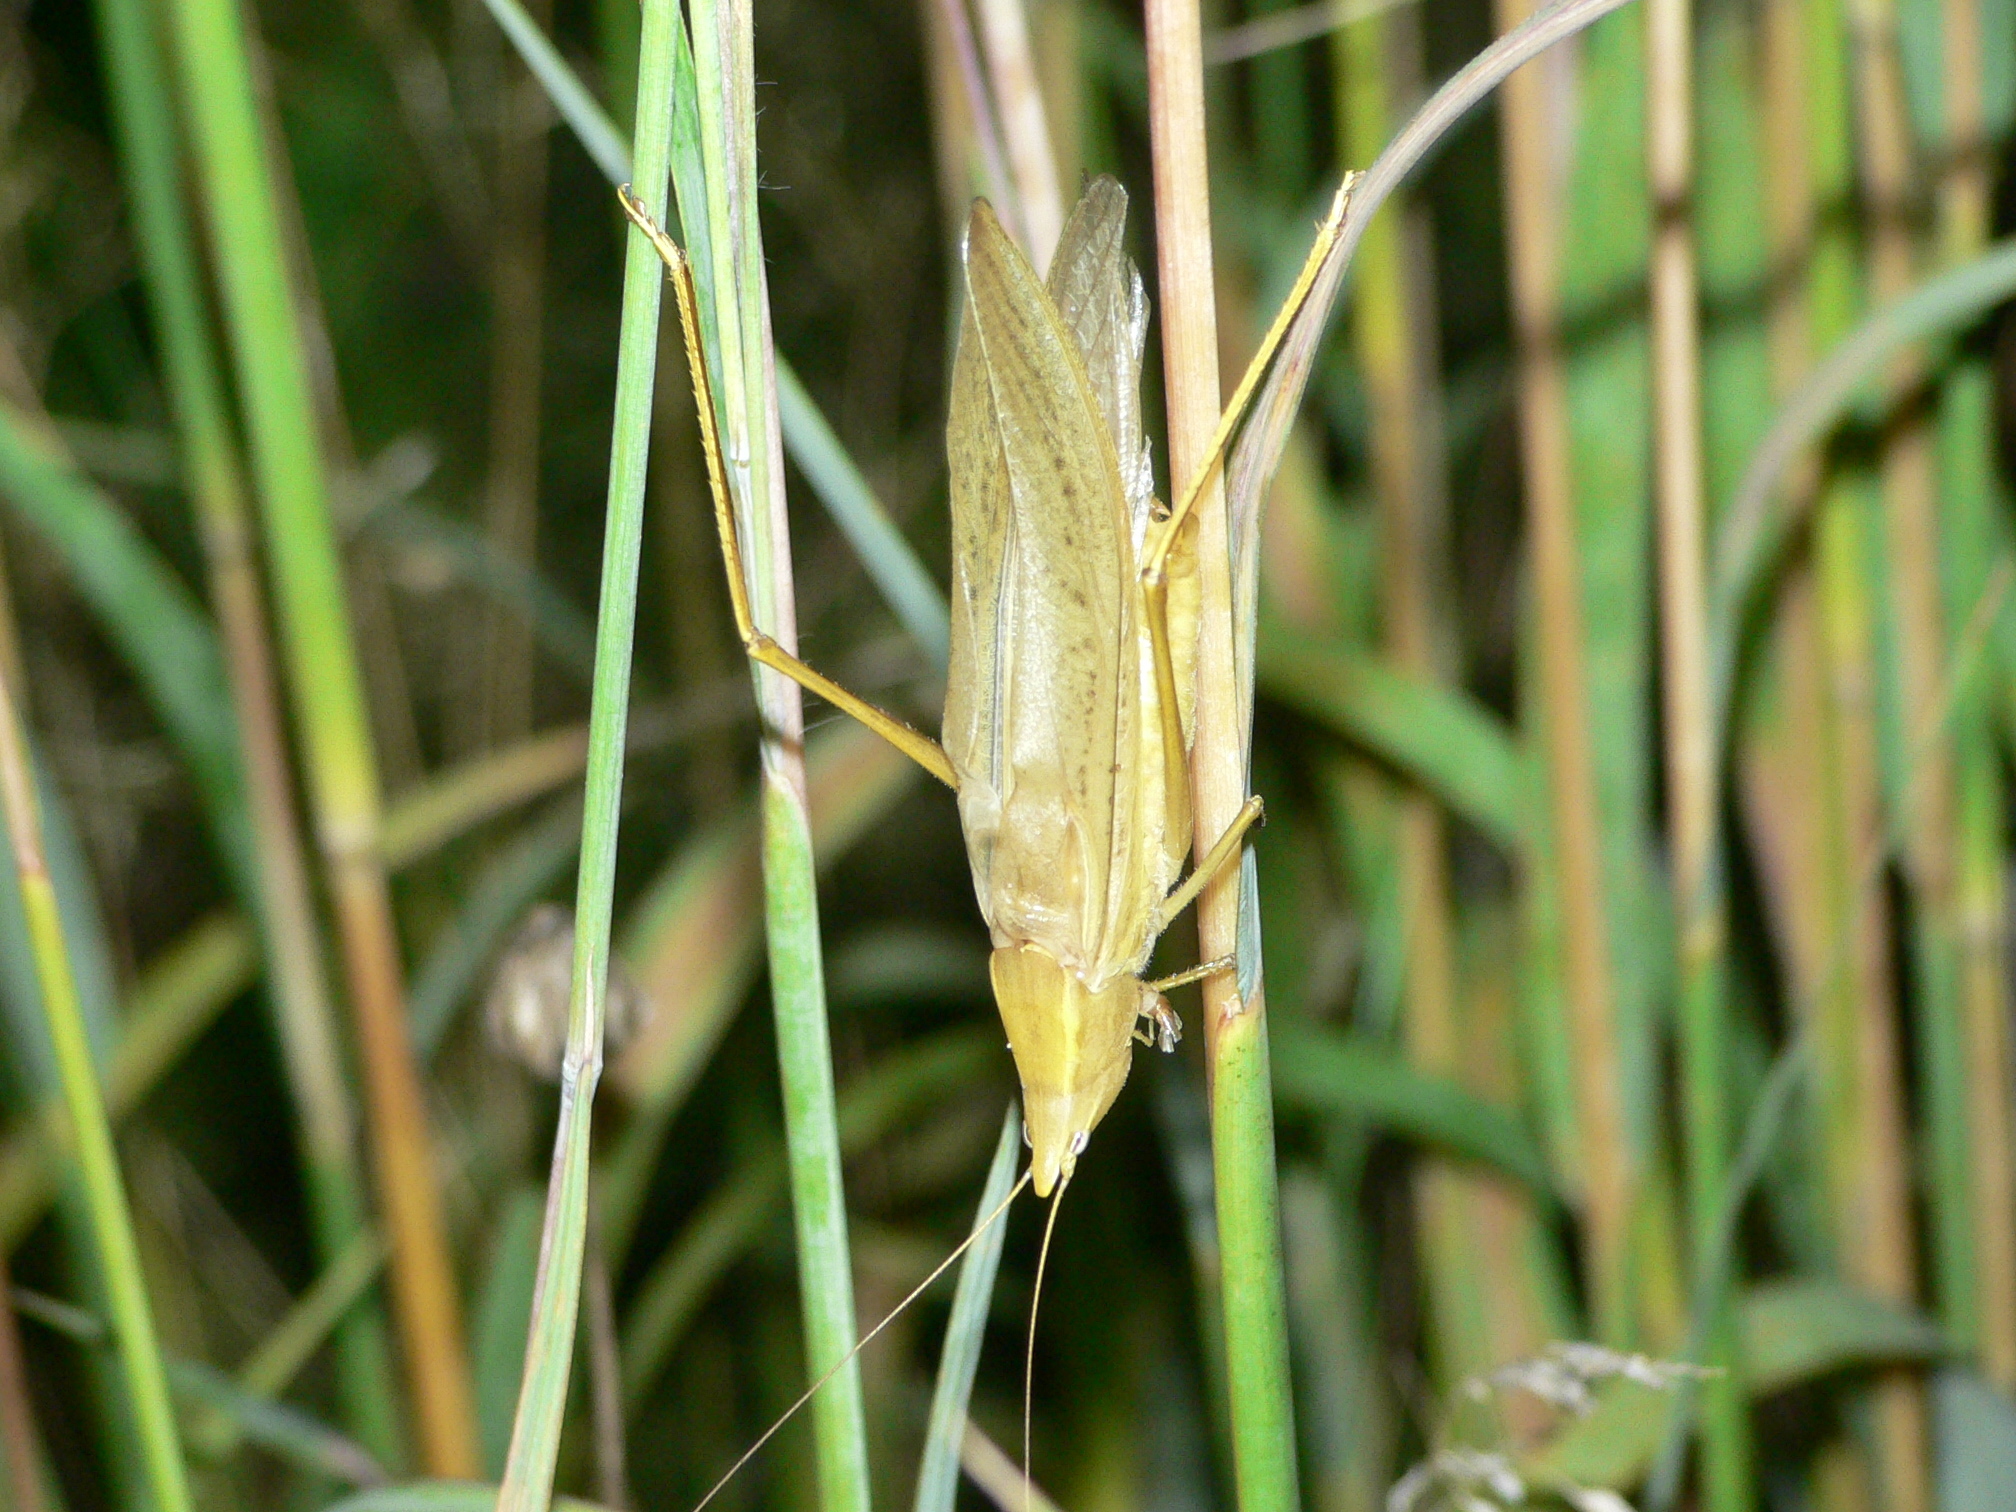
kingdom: Animalia
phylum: Arthropoda
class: Insecta
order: Orthoptera
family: Tettigoniidae
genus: Neoconocephalus
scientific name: Neoconocephalus robustus
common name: Robust conehead
